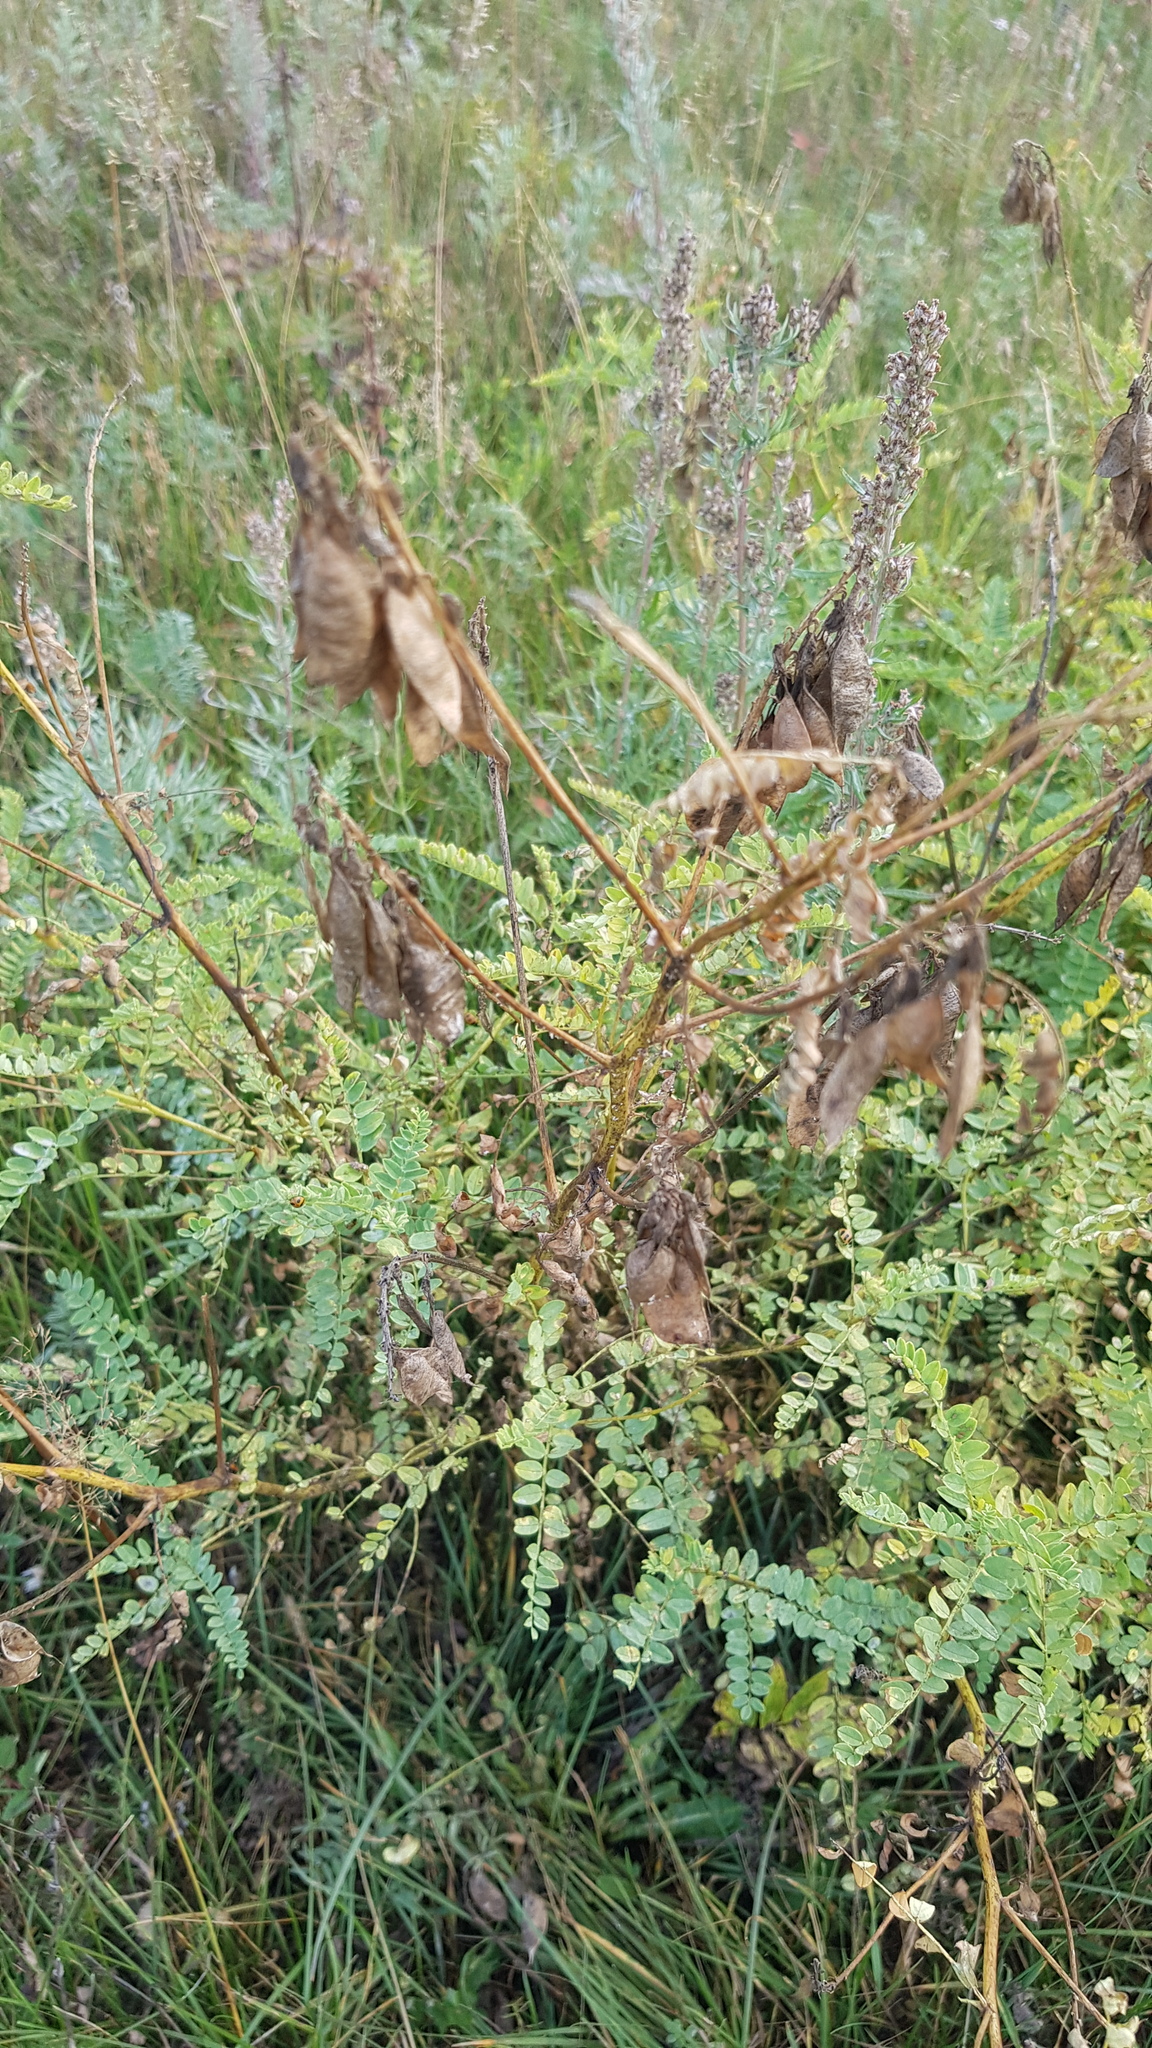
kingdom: Plantae
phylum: Tracheophyta
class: Magnoliopsida
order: Fabales
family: Fabaceae
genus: Astragalus
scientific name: Astragalus mongholicus
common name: Membranous milk-vetch
